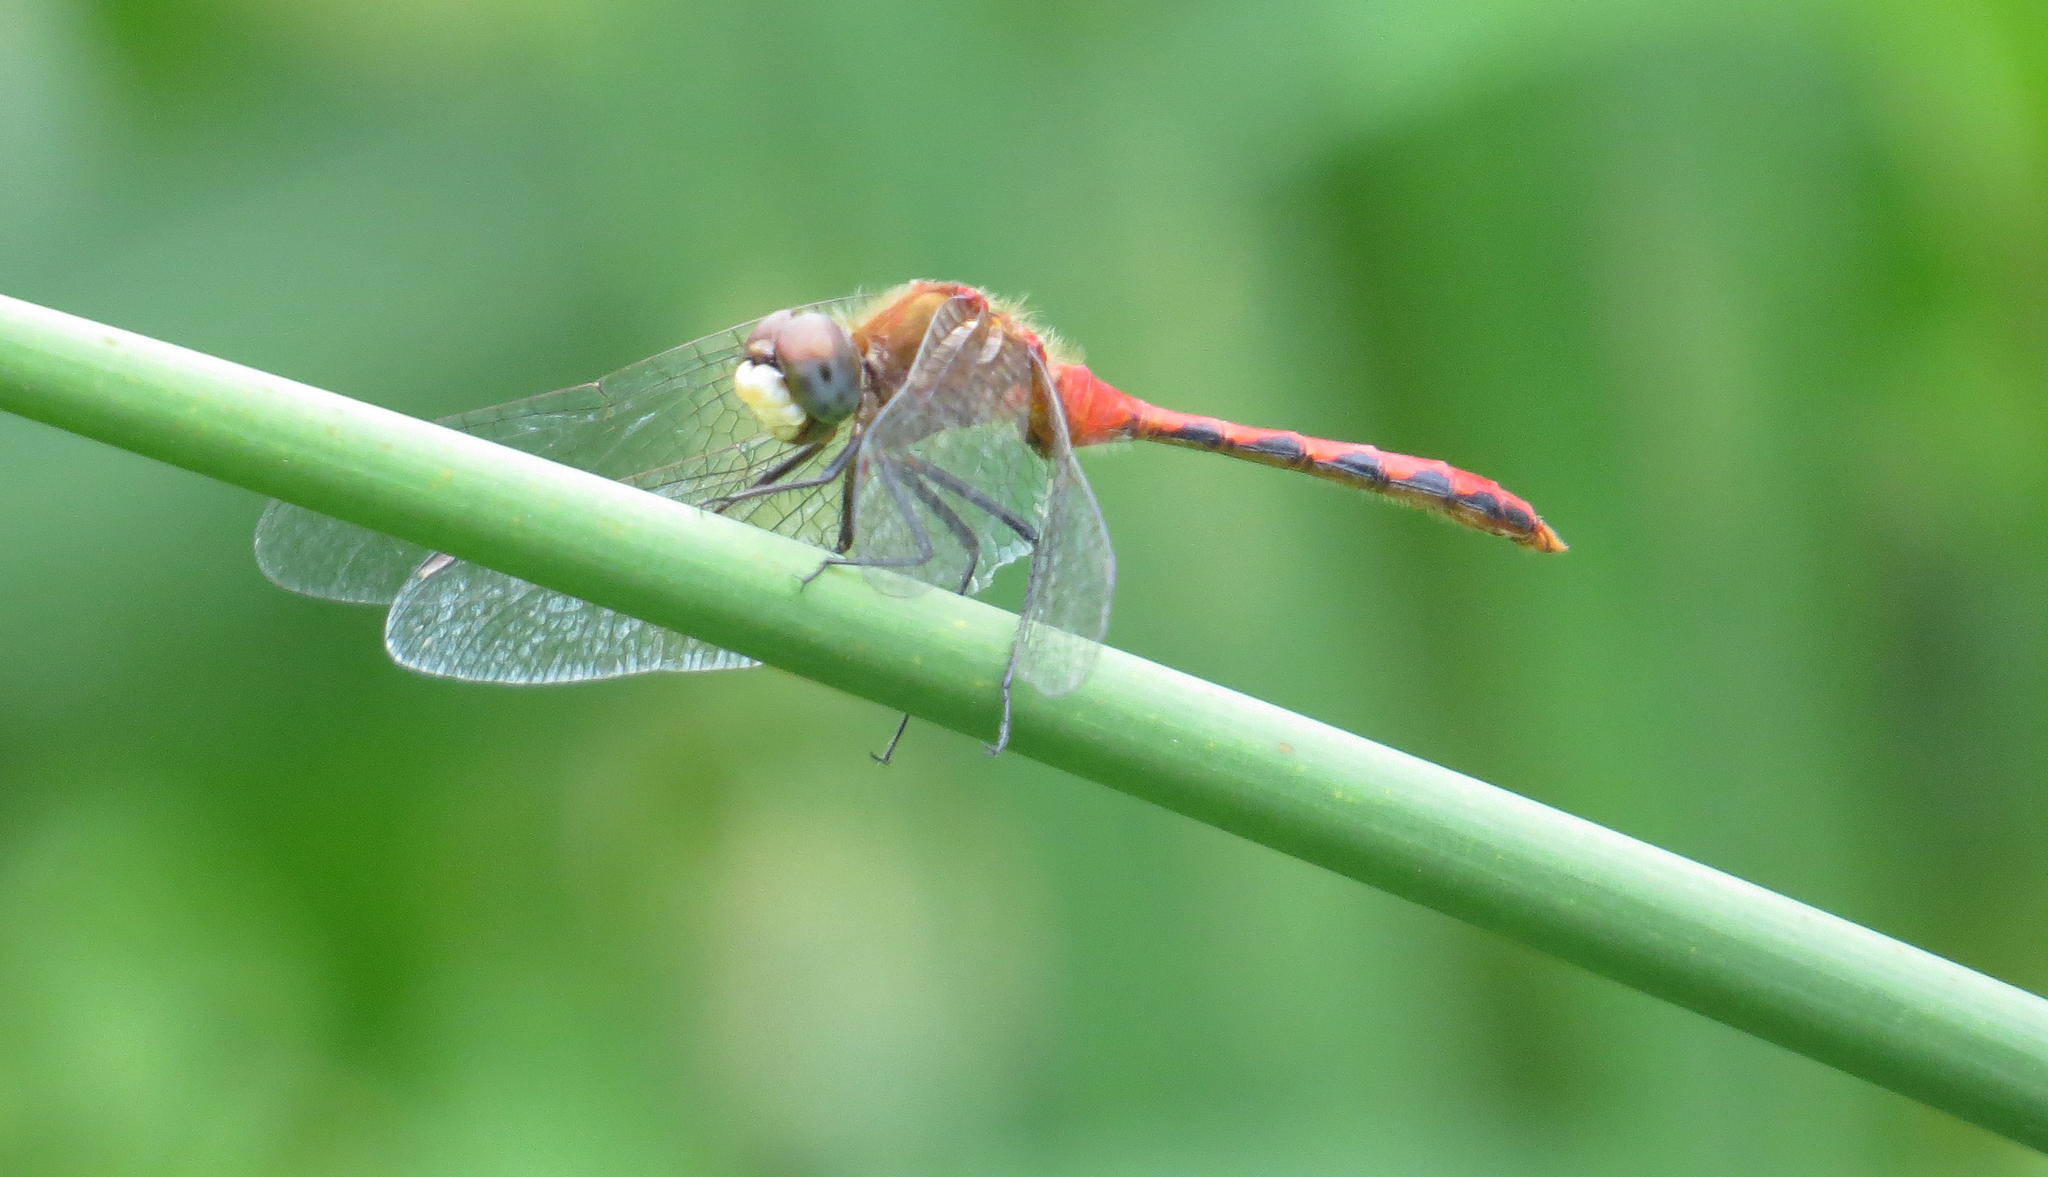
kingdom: Animalia
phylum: Arthropoda
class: Insecta
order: Odonata
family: Libellulidae
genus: Sympetrum
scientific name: Sympetrum obtrusum
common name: White-faced meadowhawk
